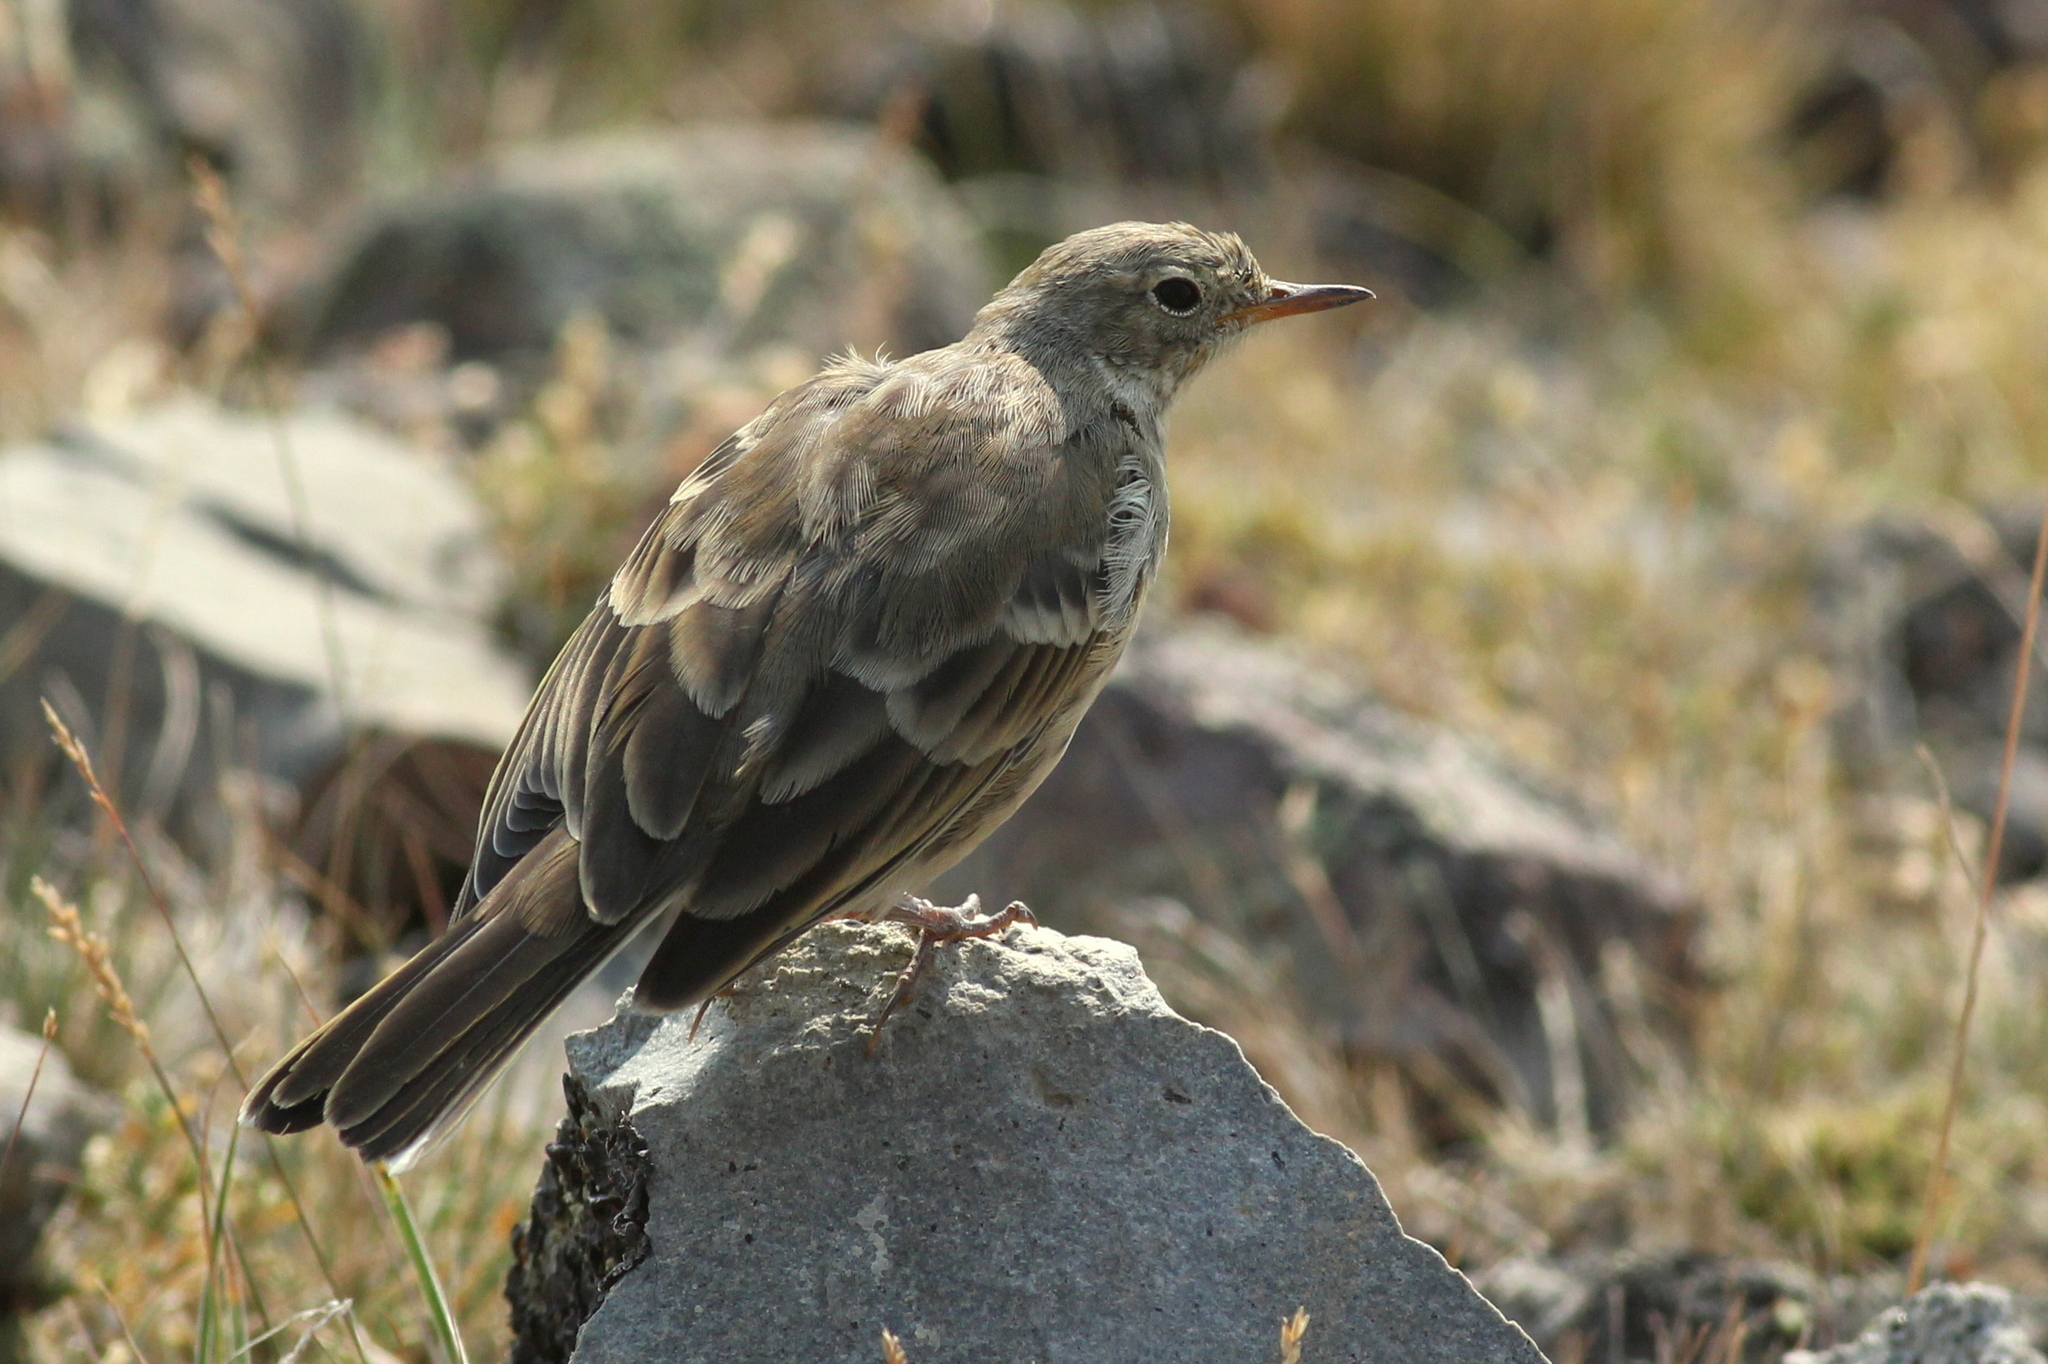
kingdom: Animalia
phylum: Chordata
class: Aves
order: Passeriformes
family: Motacillidae
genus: Anthus
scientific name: Anthus rubescens
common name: Buff-bellied pipit
